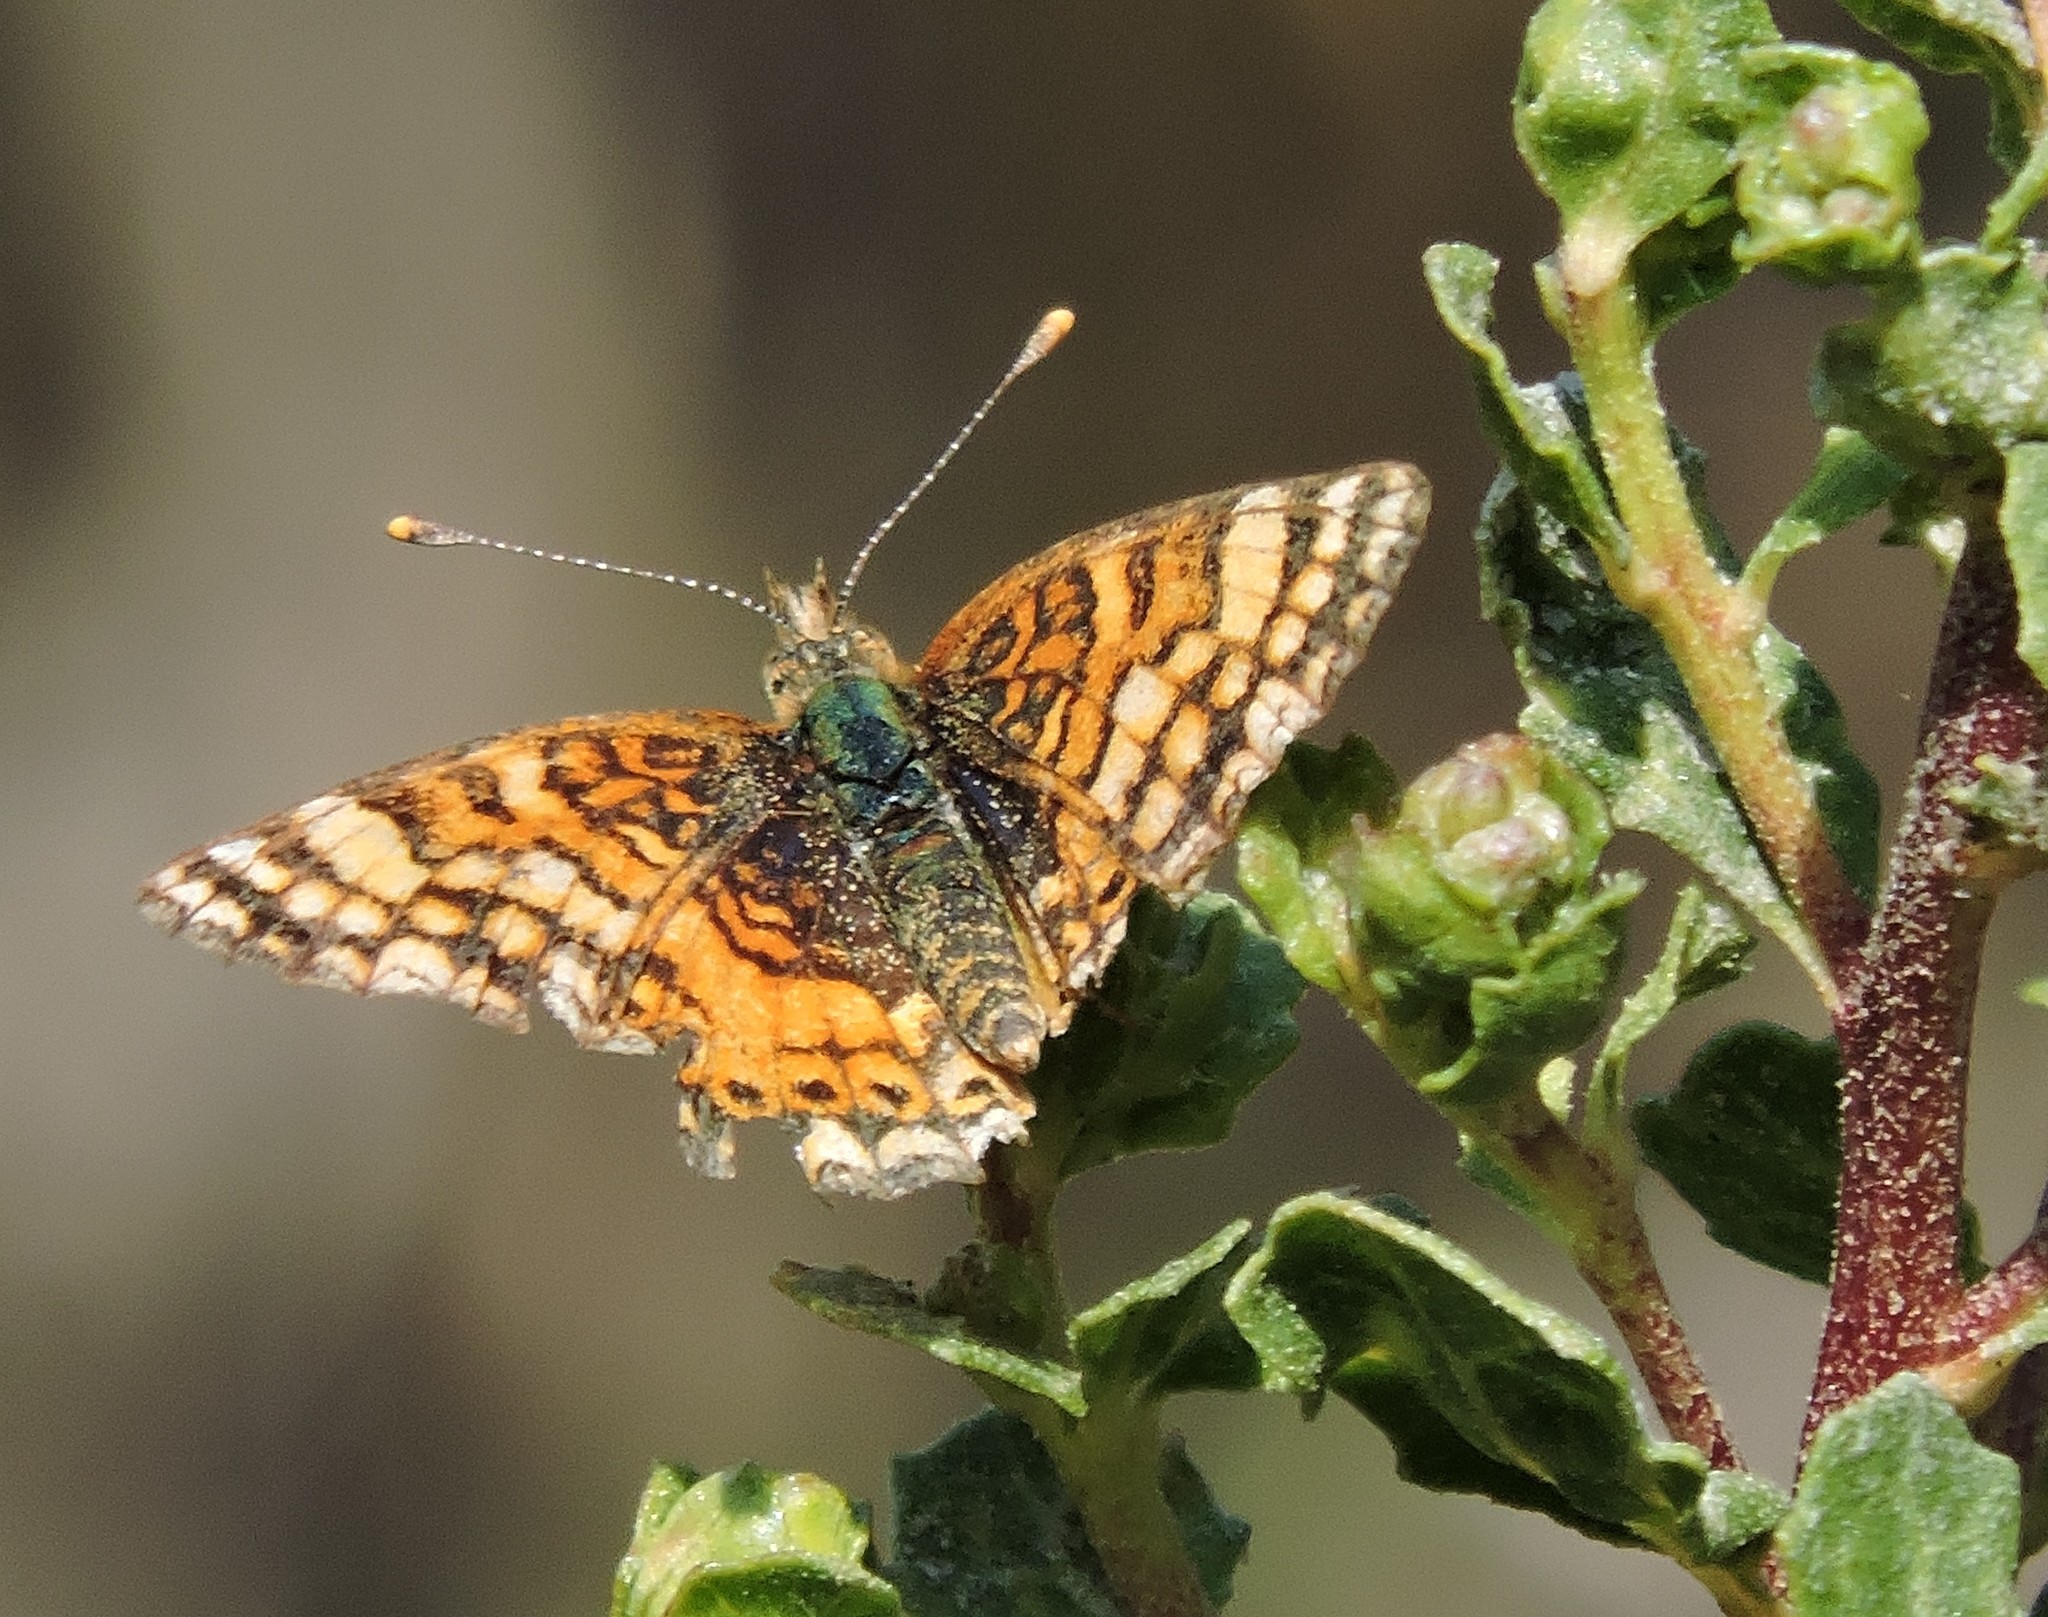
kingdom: Animalia
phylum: Arthropoda
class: Insecta
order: Lepidoptera
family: Nymphalidae
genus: Eresia
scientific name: Eresia aveyrona
